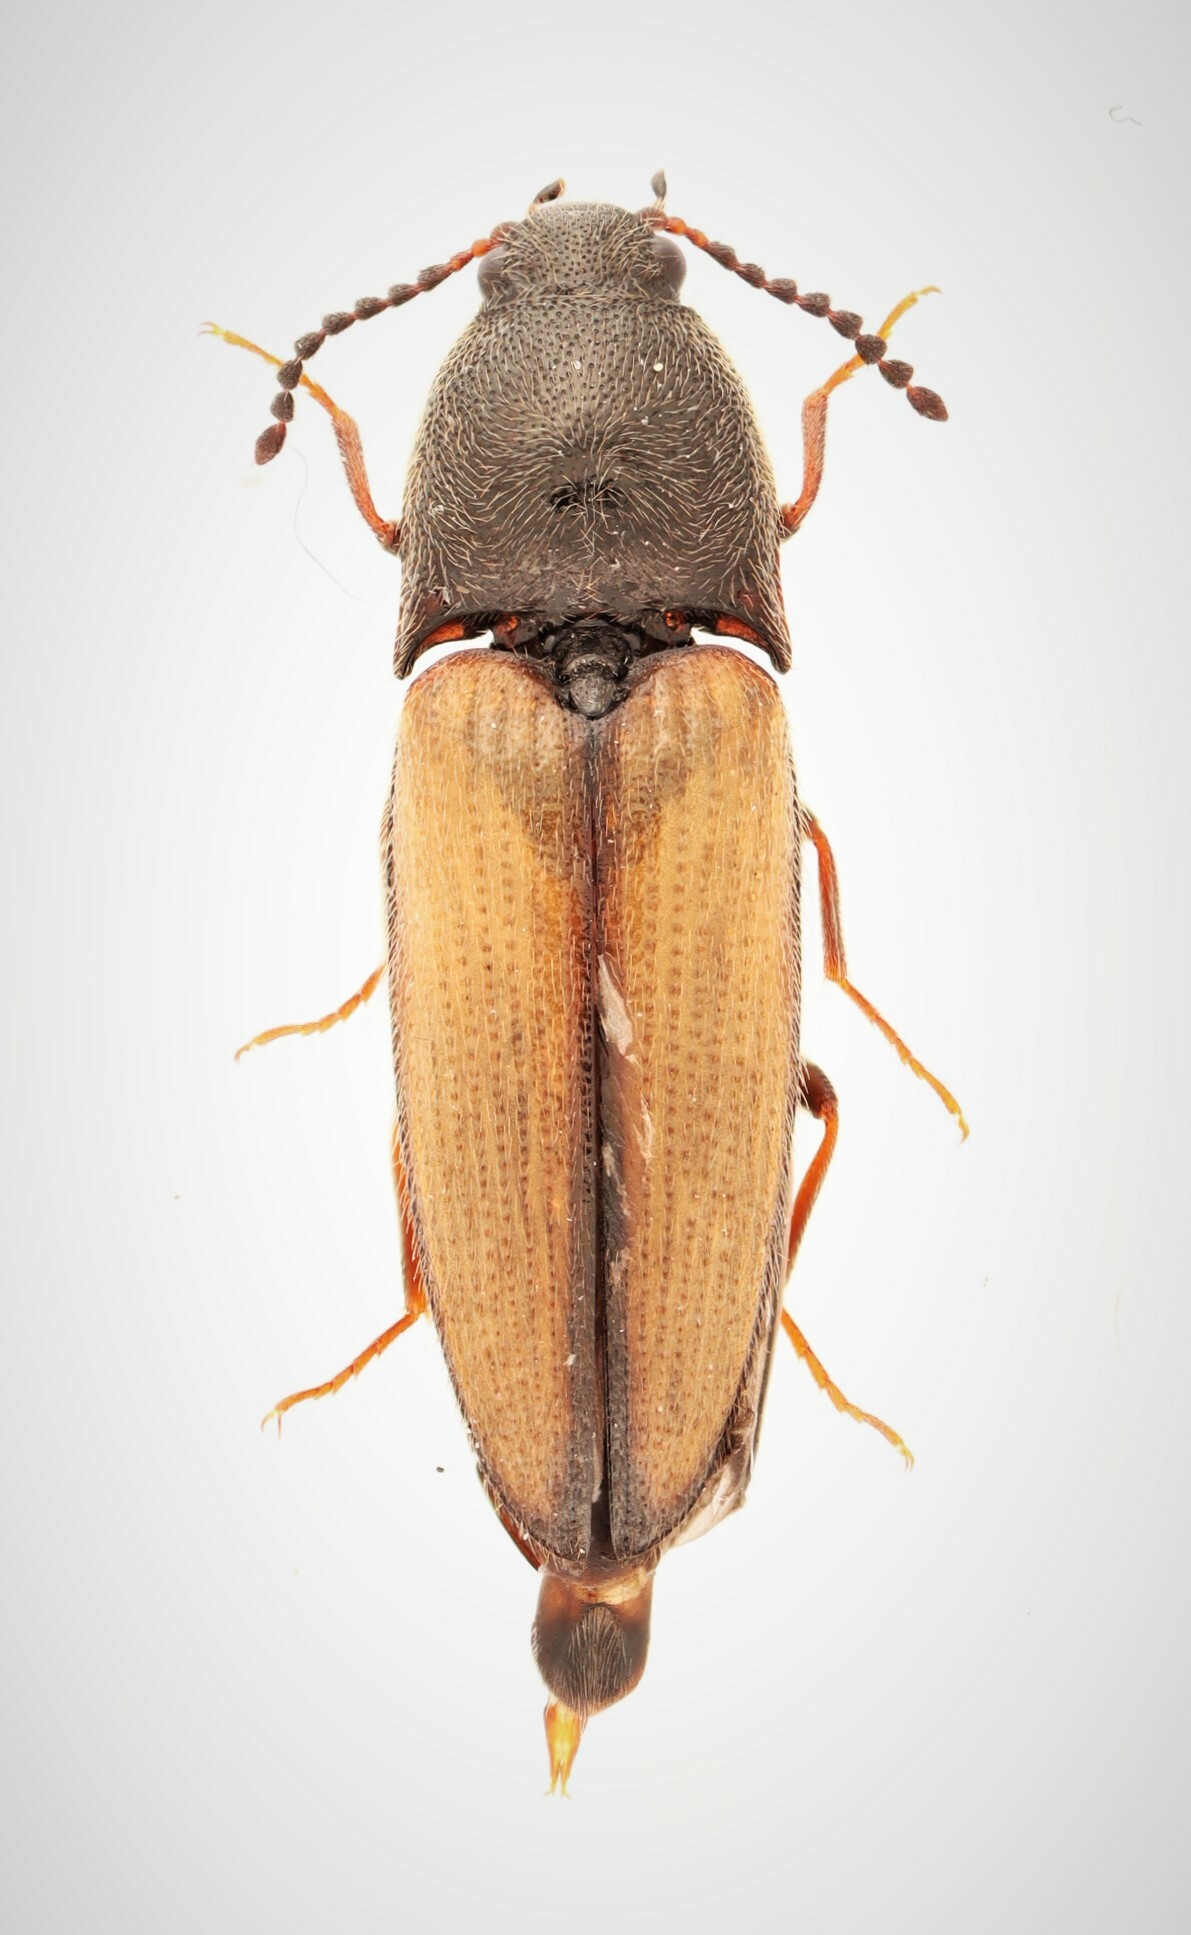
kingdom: Animalia
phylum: Arthropoda
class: Insecta
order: Coleoptera
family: Elateridae
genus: Ampedus
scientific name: Ampedus militaris
